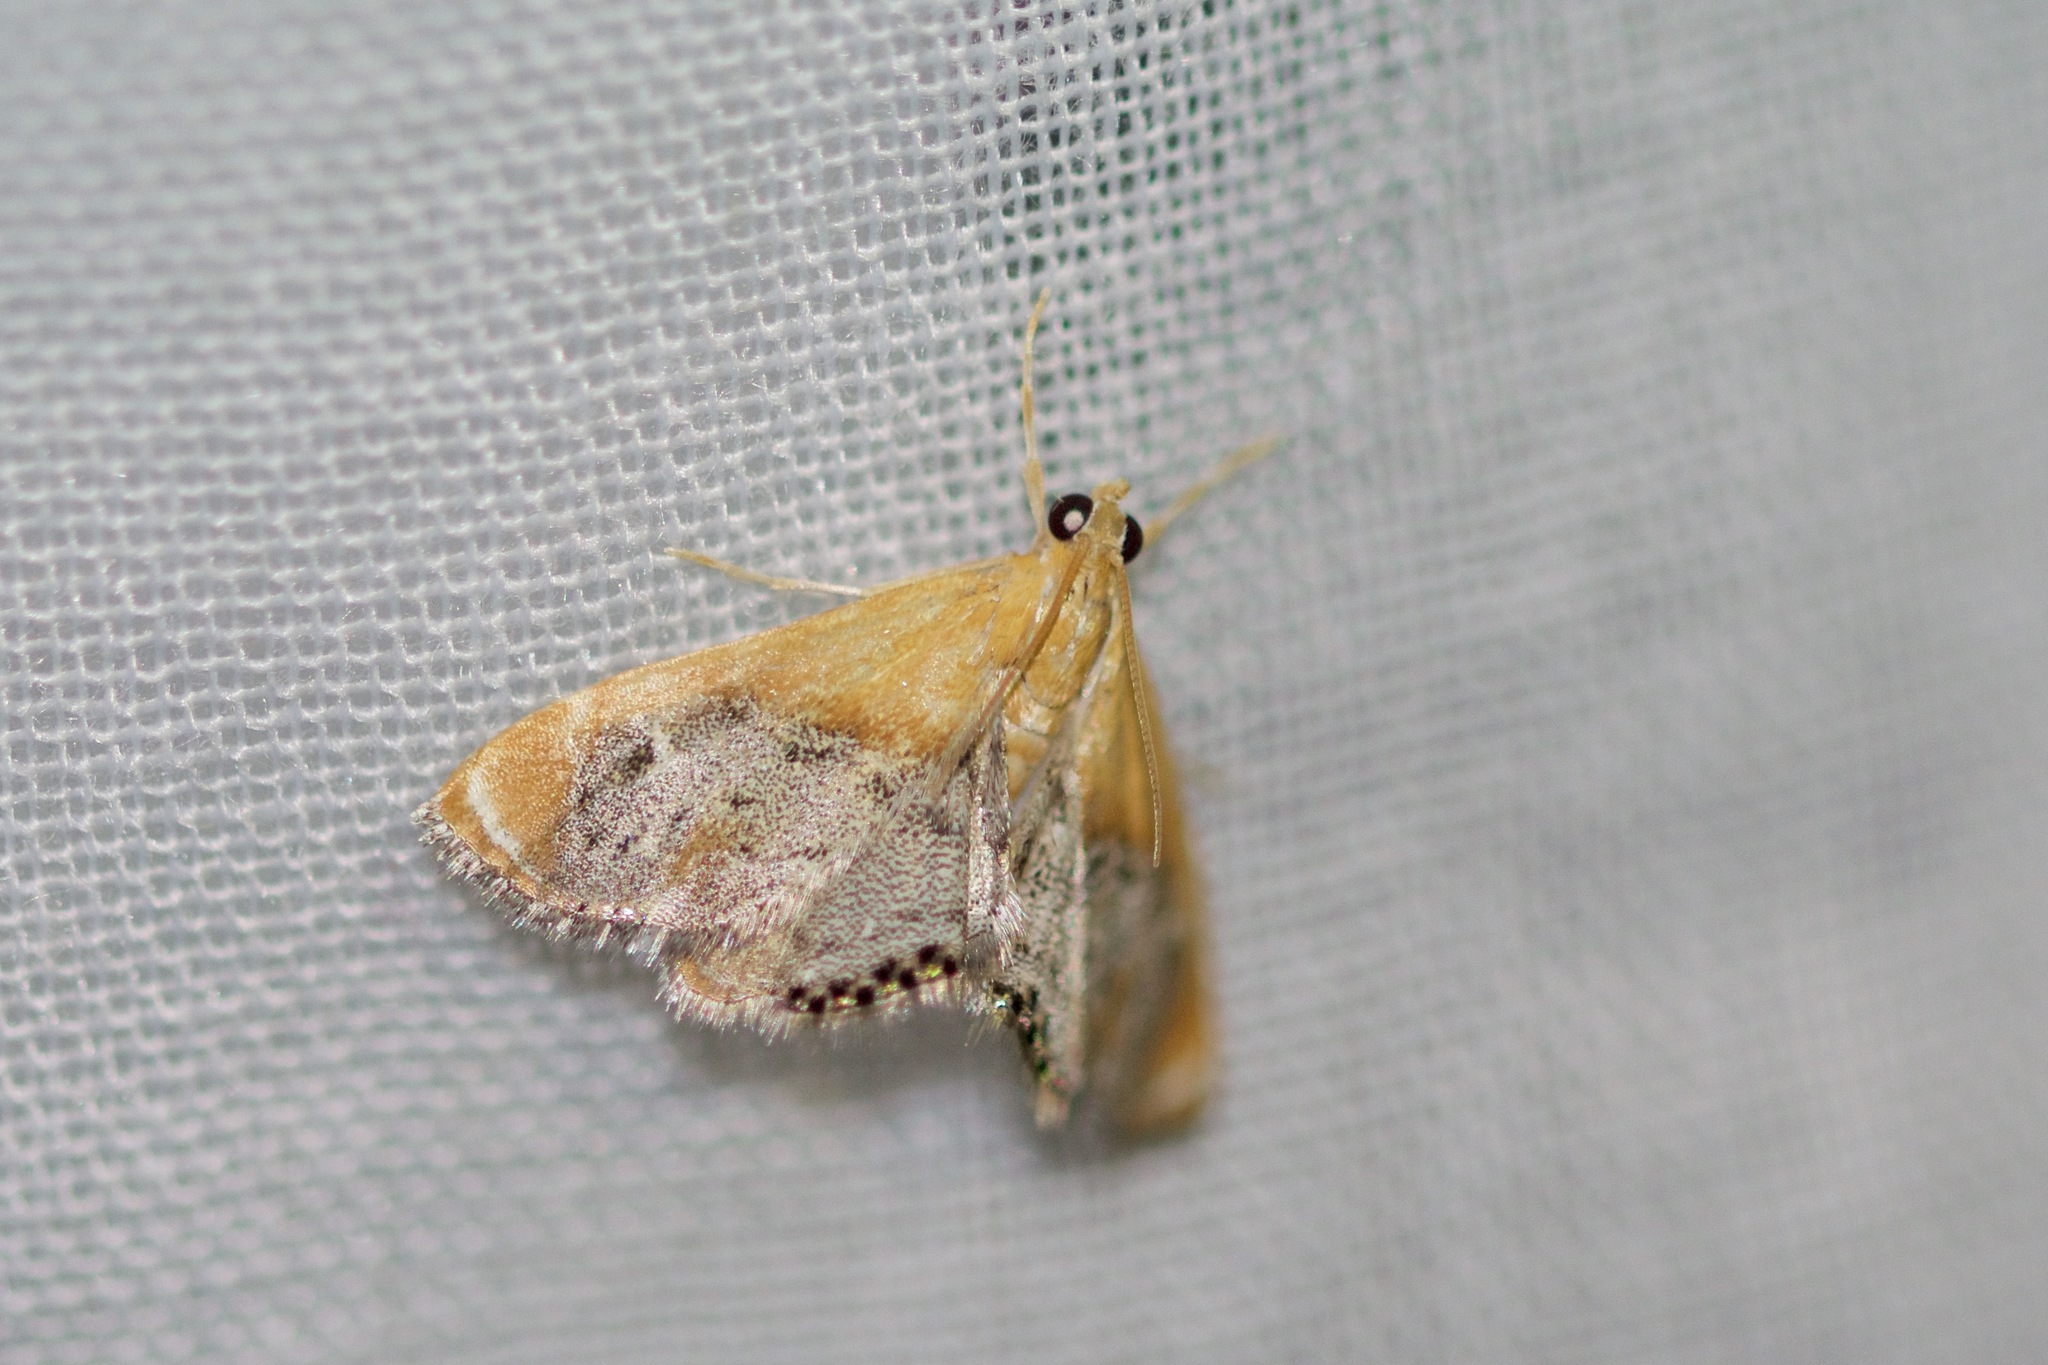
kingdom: Animalia
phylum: Arthropoda
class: Insecta
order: Lepidoptera
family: Crambidae
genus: Chalcoela
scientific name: Chalcoela iphitalis
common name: Sooty-winged chalcoela moth
